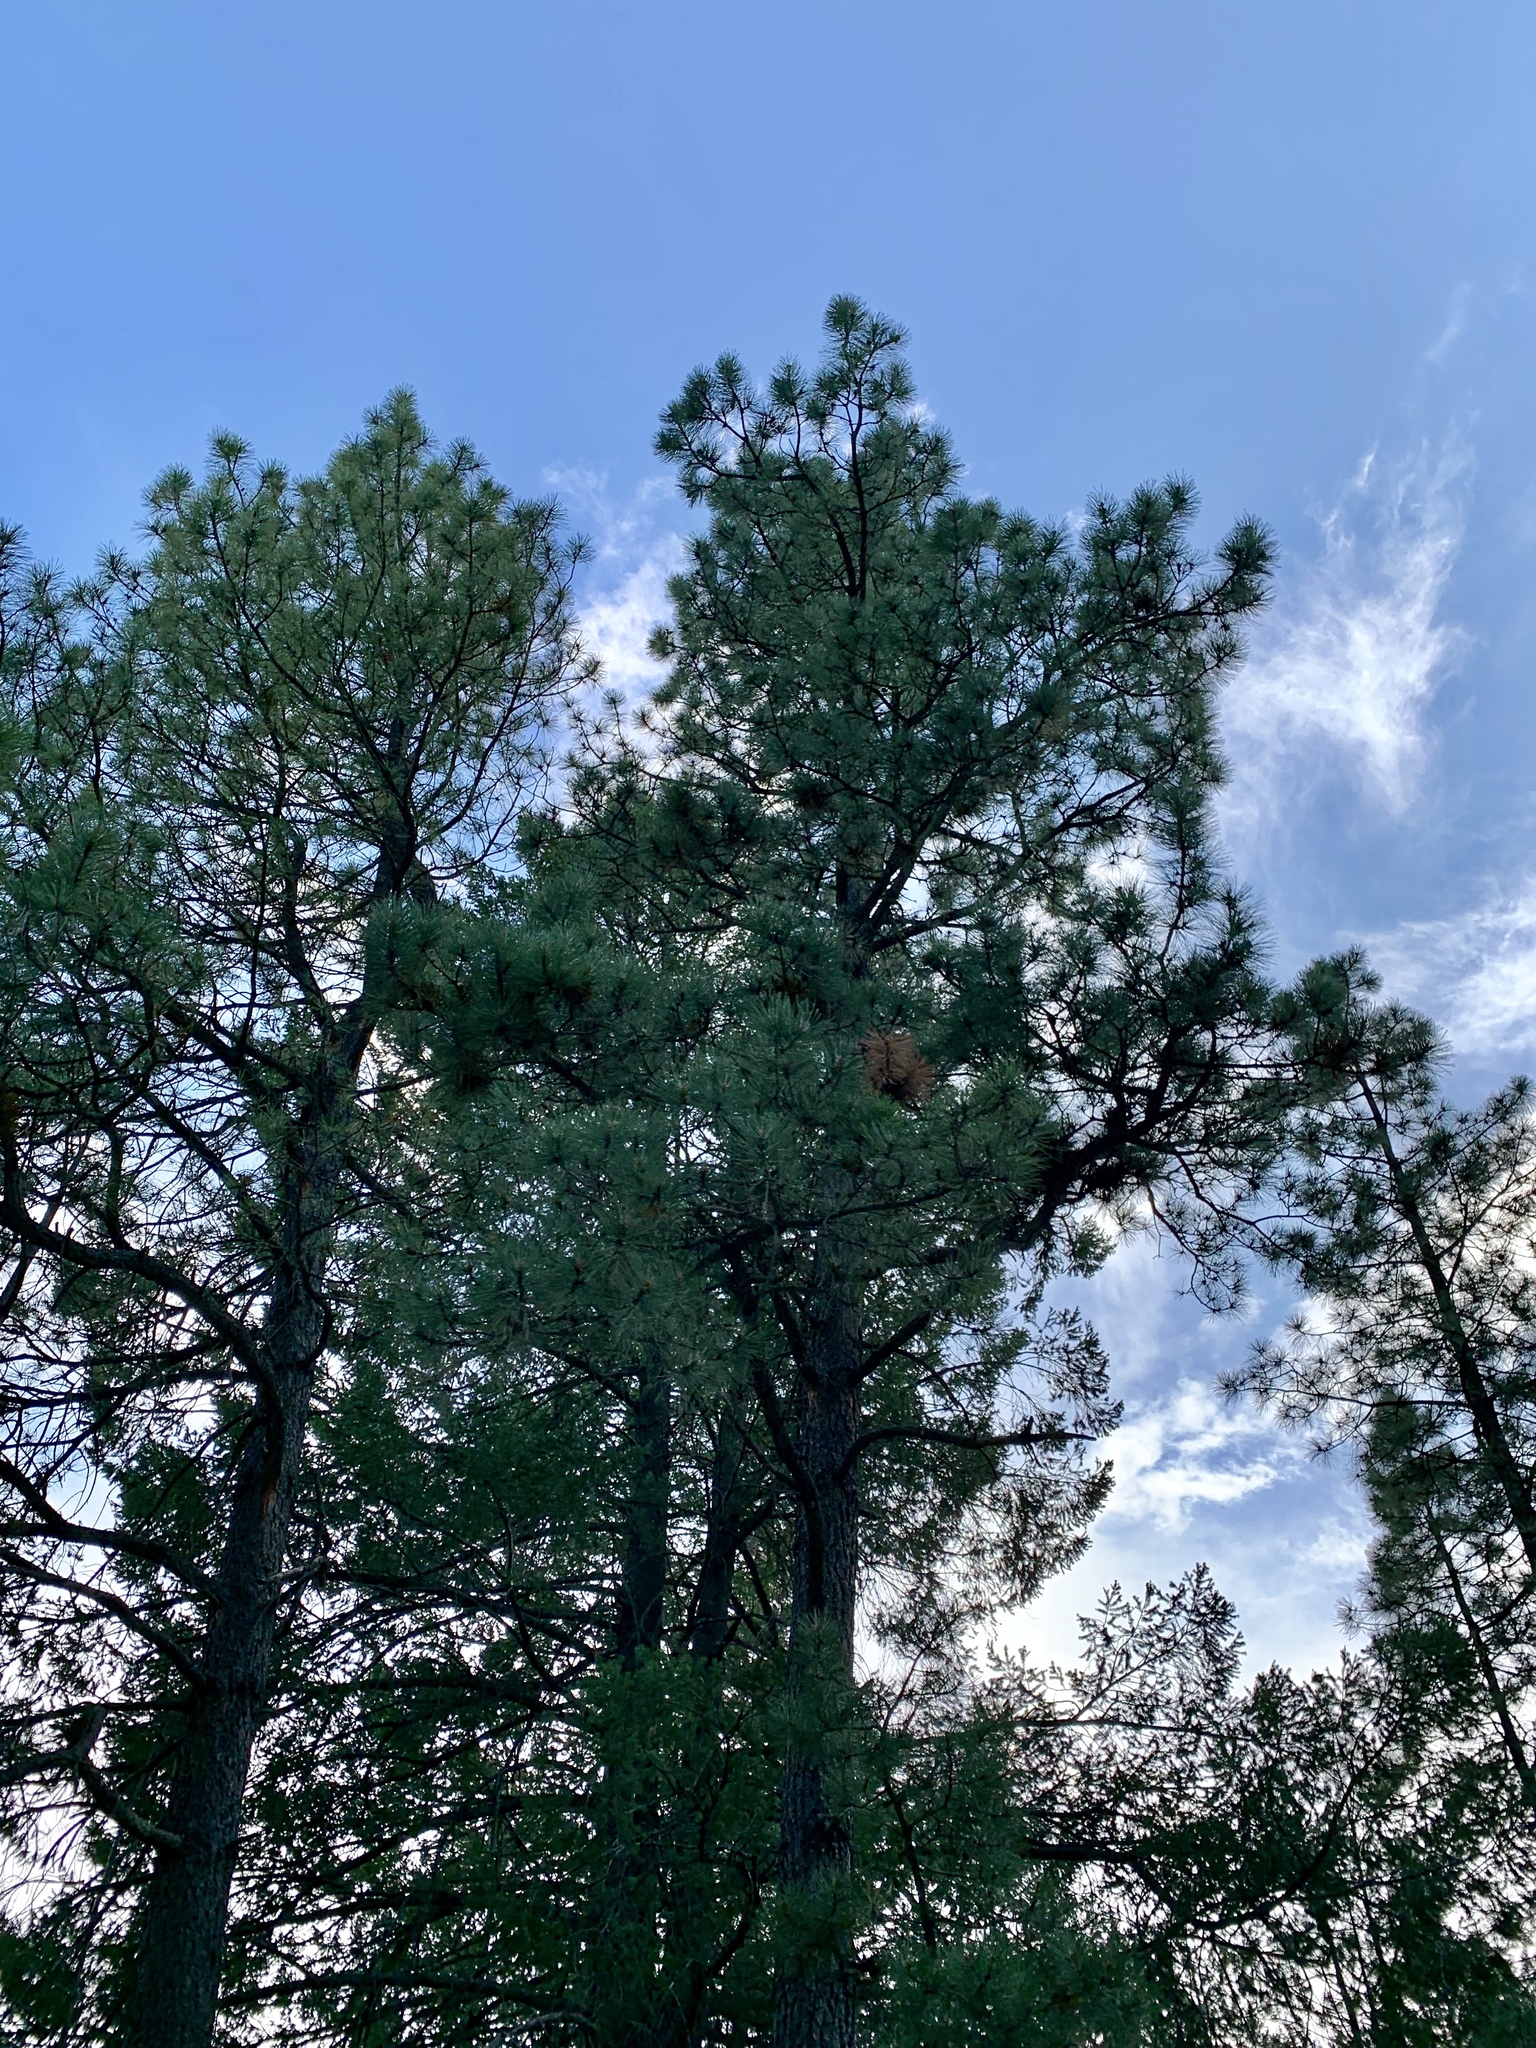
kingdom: Plantae
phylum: Tracheophyta
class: Pinopsida
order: Pinales
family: Pinaceae
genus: Pinus
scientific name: Pinus ponderosa
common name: Western yellow-pine
